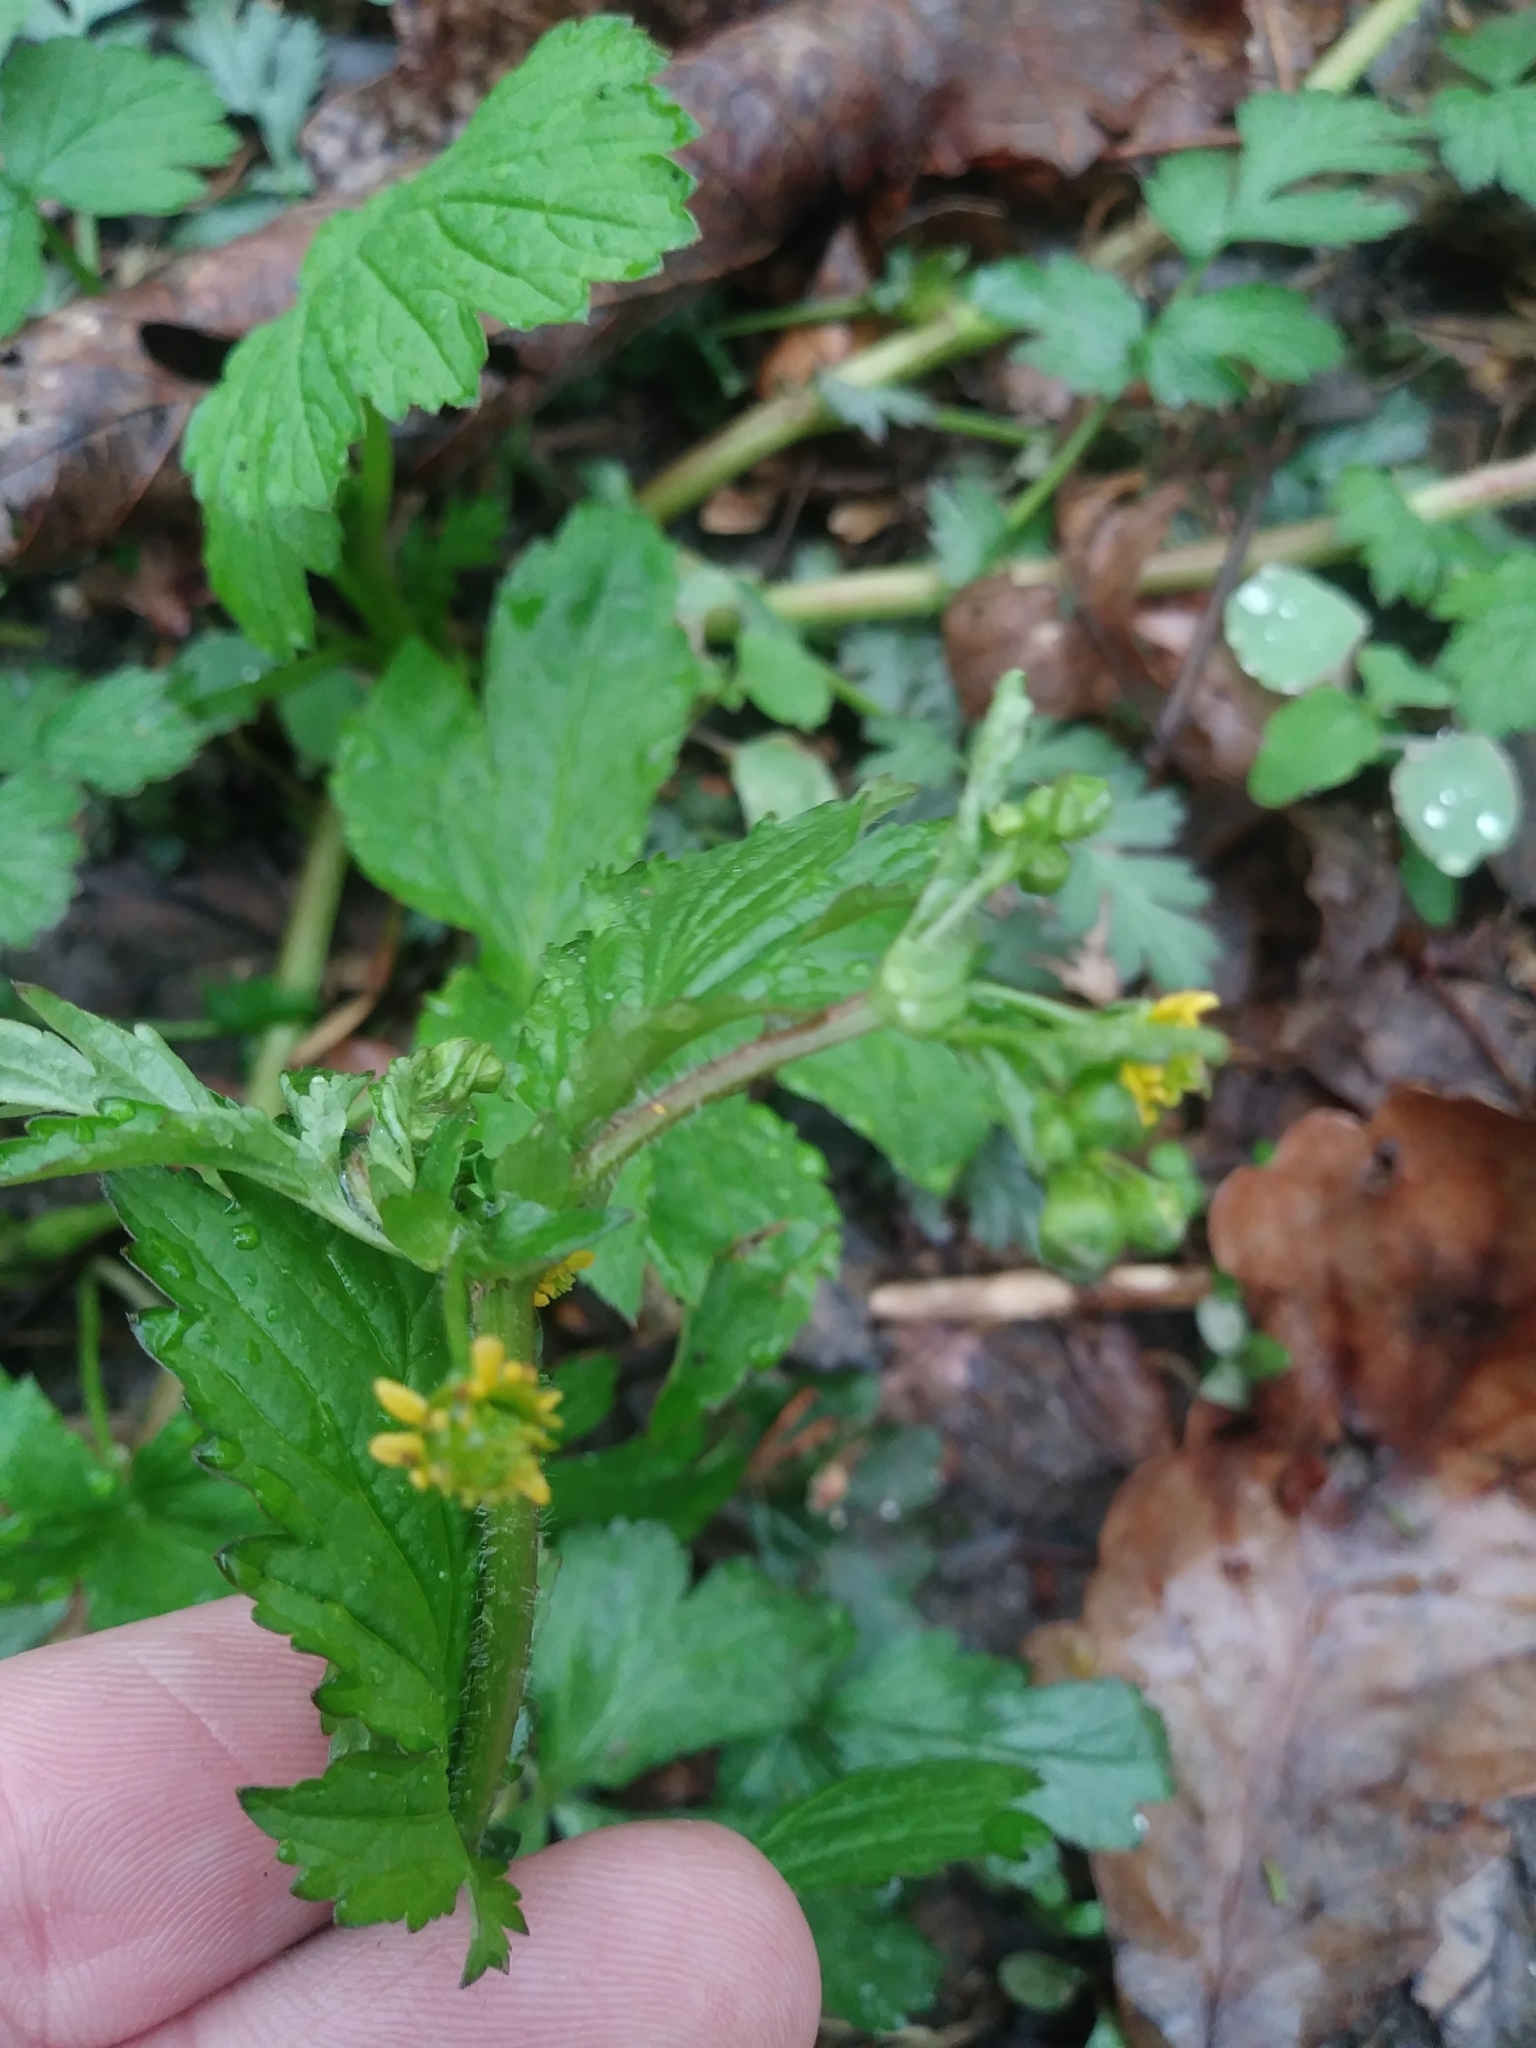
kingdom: Plantae
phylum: Tracheophyta
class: Magnoliopsida
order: Rosales
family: Rosaceae
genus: Geum
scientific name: Geum vernum
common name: Spring avens
